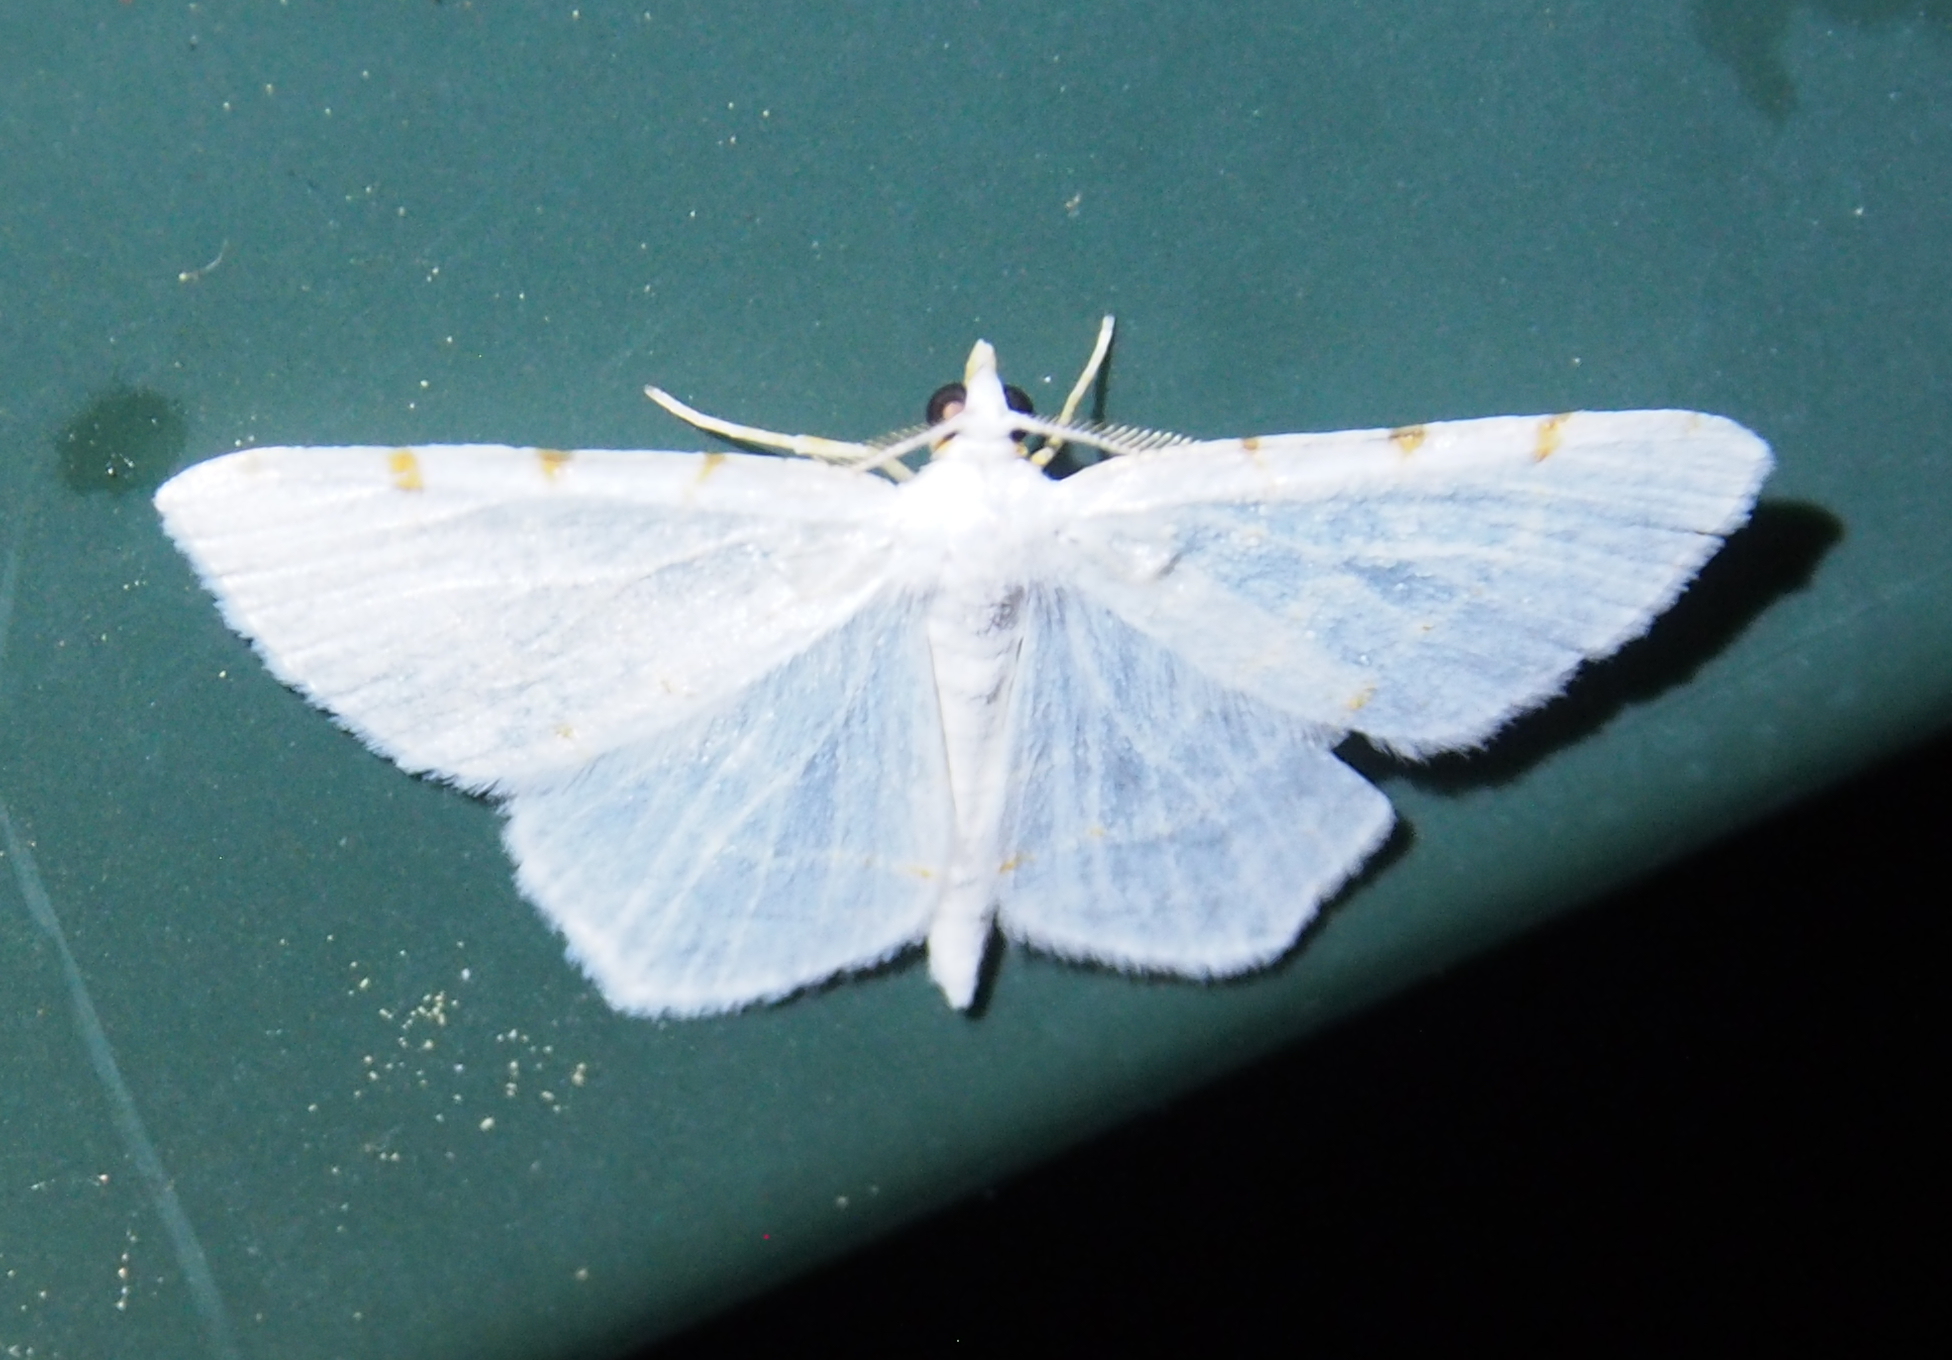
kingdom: Animalia
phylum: Arthropoda
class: Insecta
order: Lepidoptera
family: Geometridae
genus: Macaria
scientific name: Macaria pustularia
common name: Lesser maple spanworm moth
